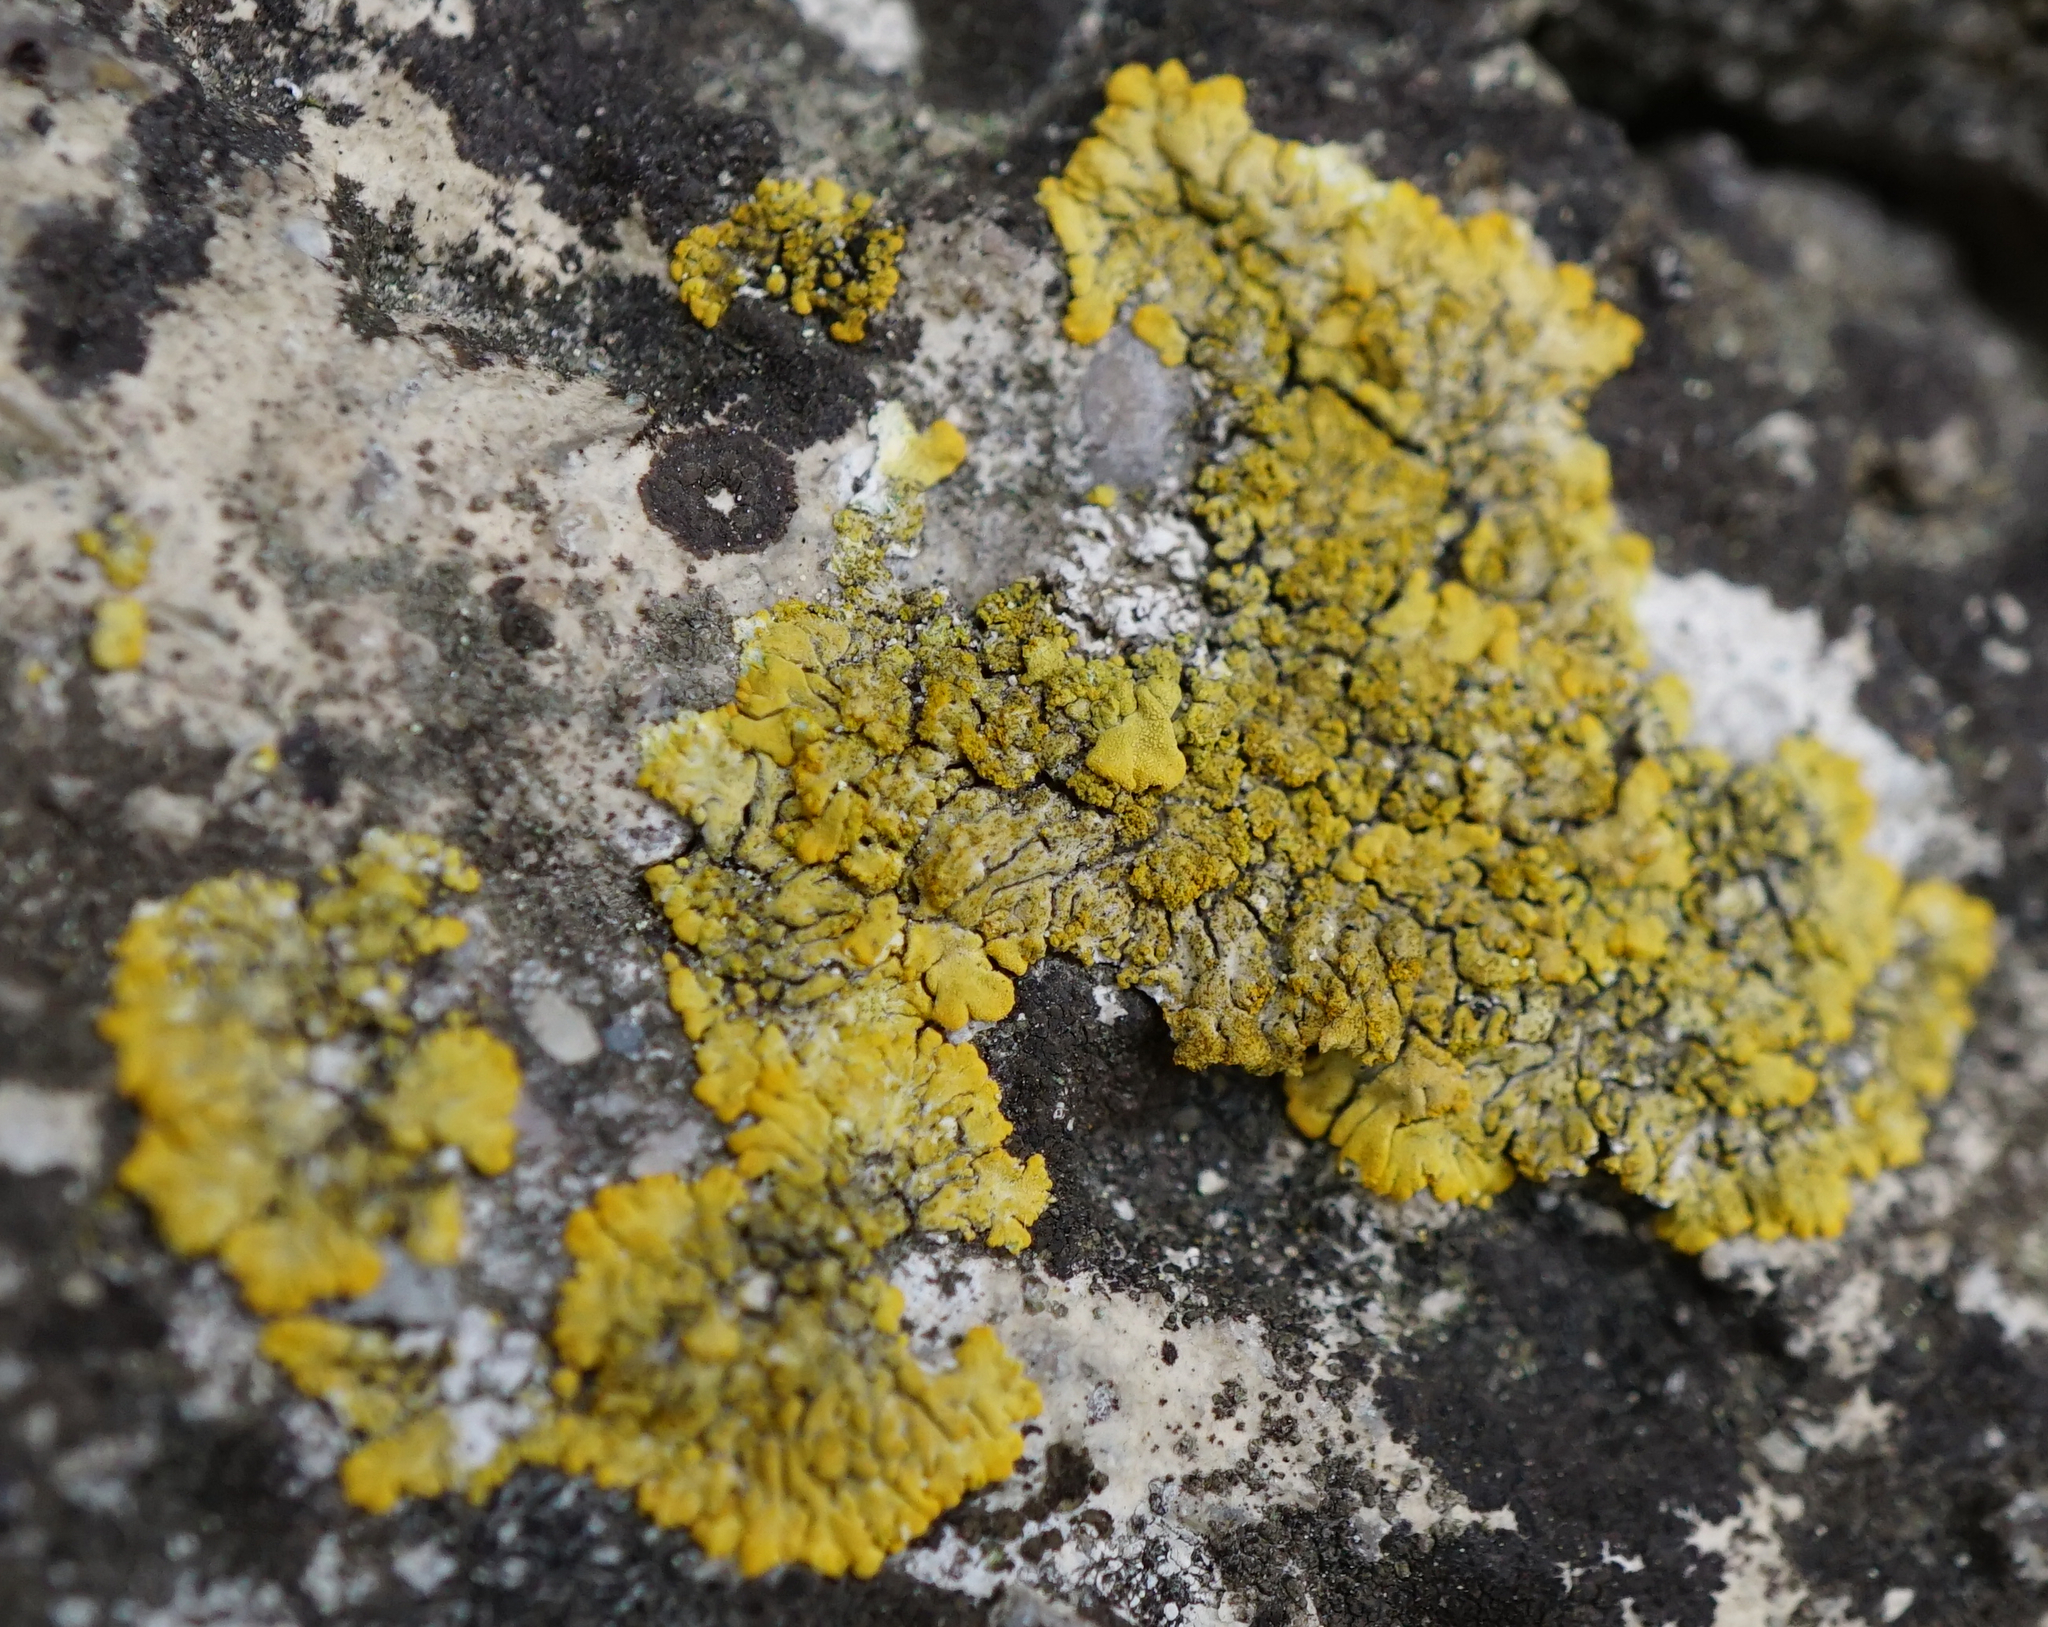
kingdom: Fungi
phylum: Ascomycota
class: Lecanoromycetes
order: Teloschistales
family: Teloschistaceae
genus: Calogaya
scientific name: Calogaya decipiens
